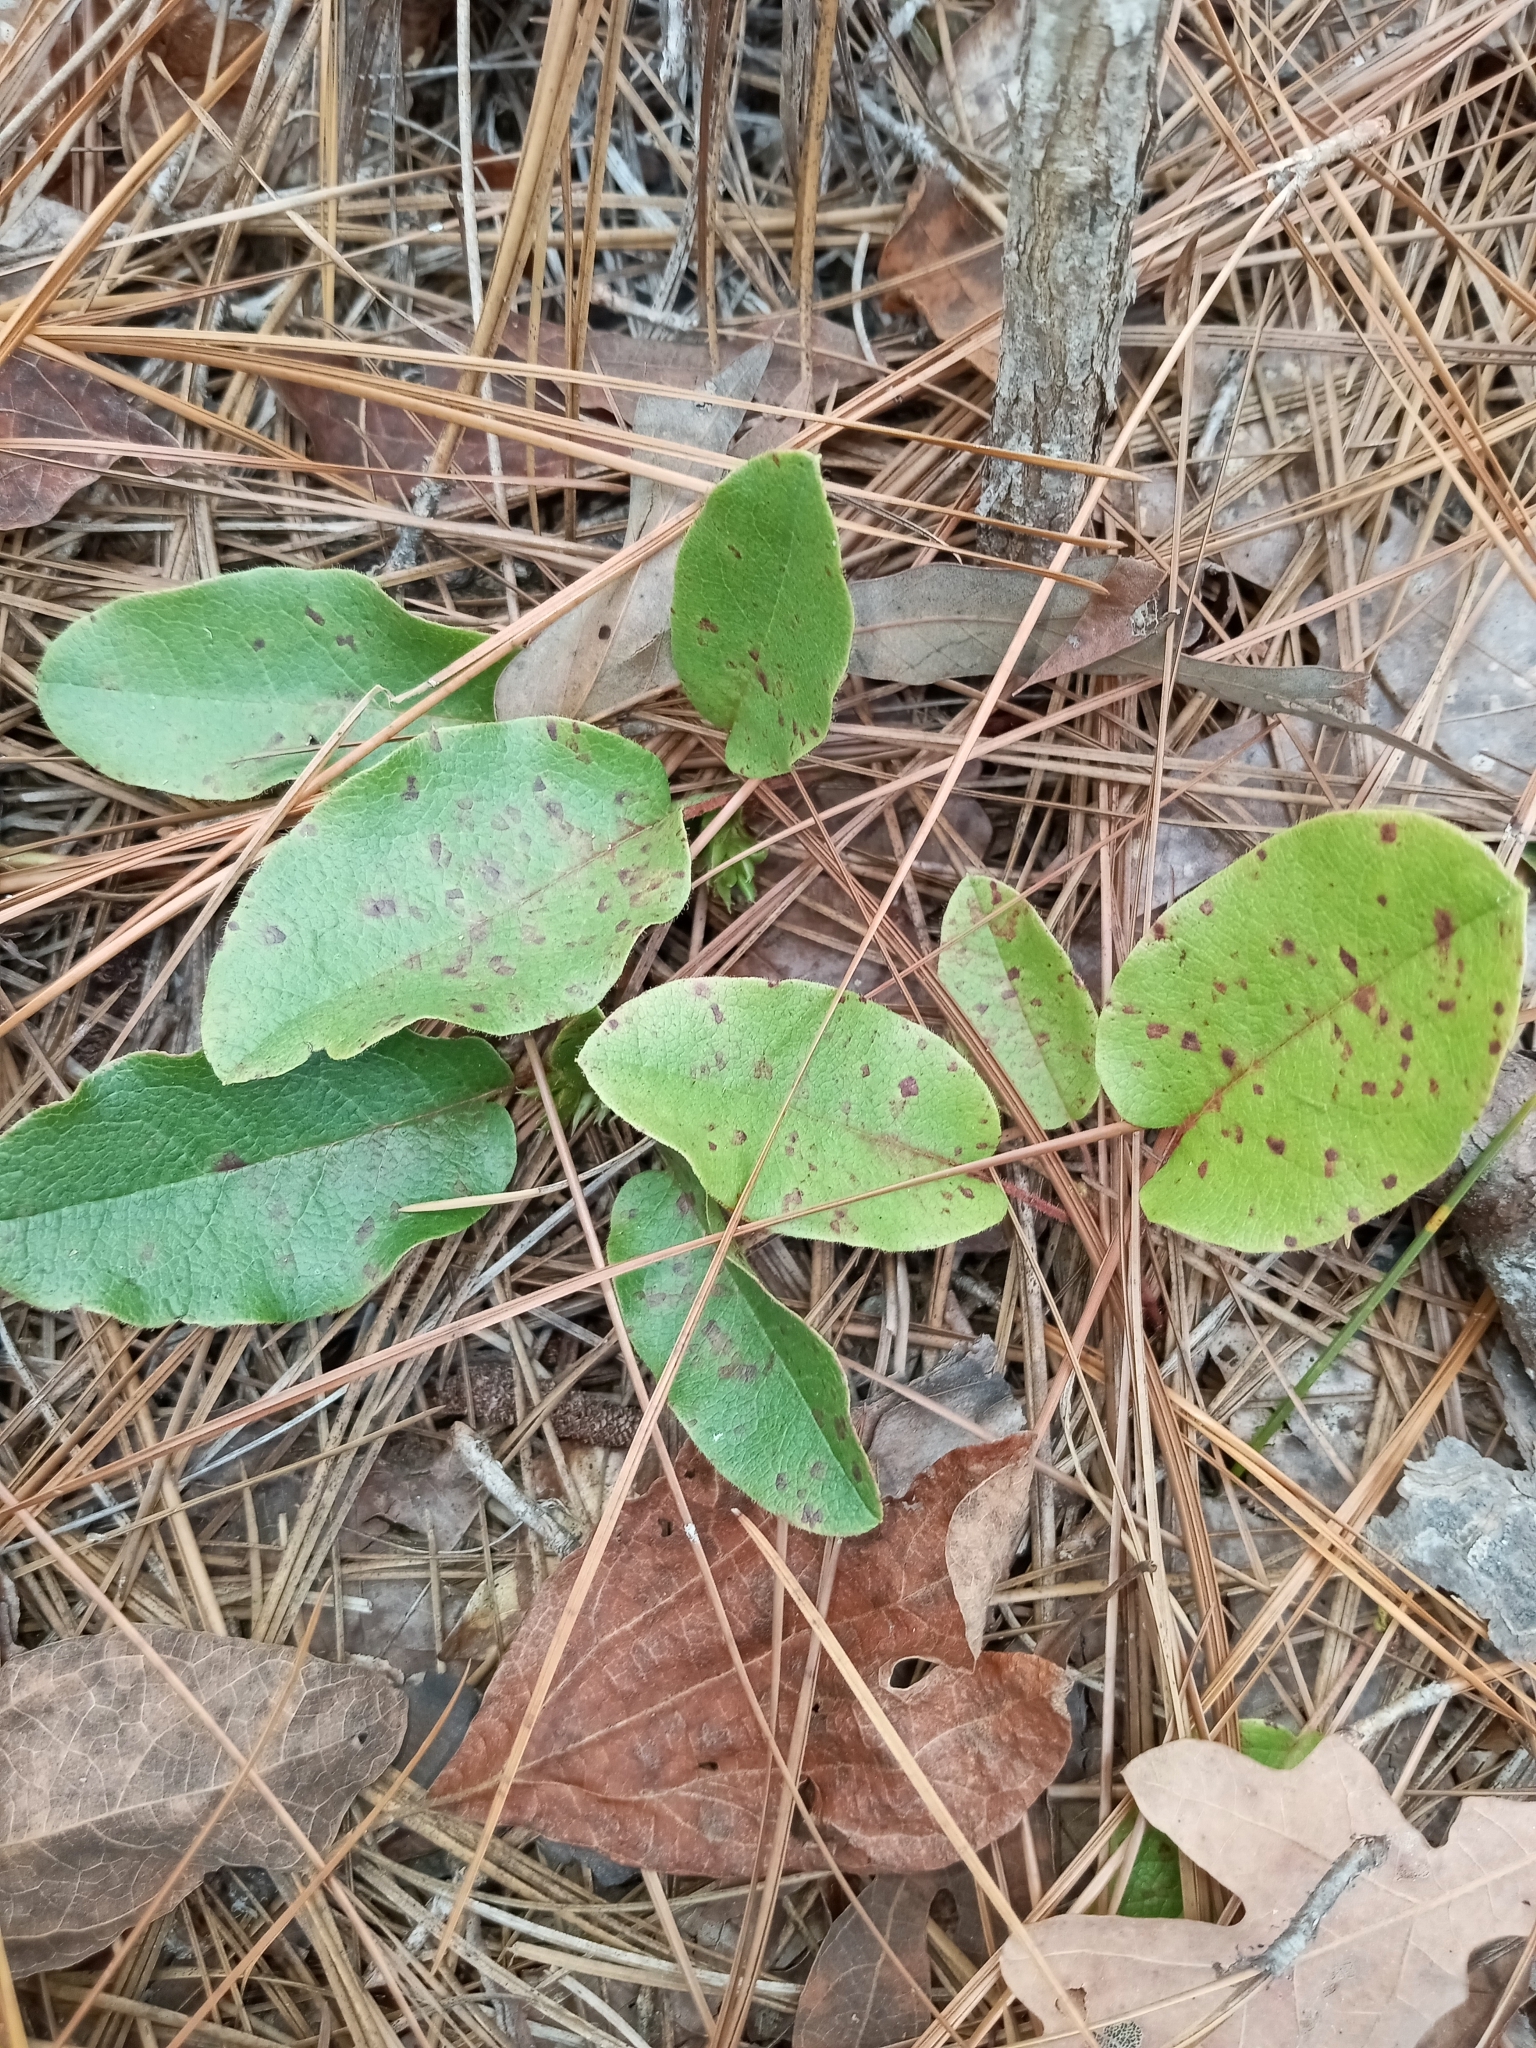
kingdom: Plantae
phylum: Tracheophyta
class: Magnoliopsida
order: Ericales
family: Ericaceae
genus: Epigaea
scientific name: Epigaea repens
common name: Gravelroot
